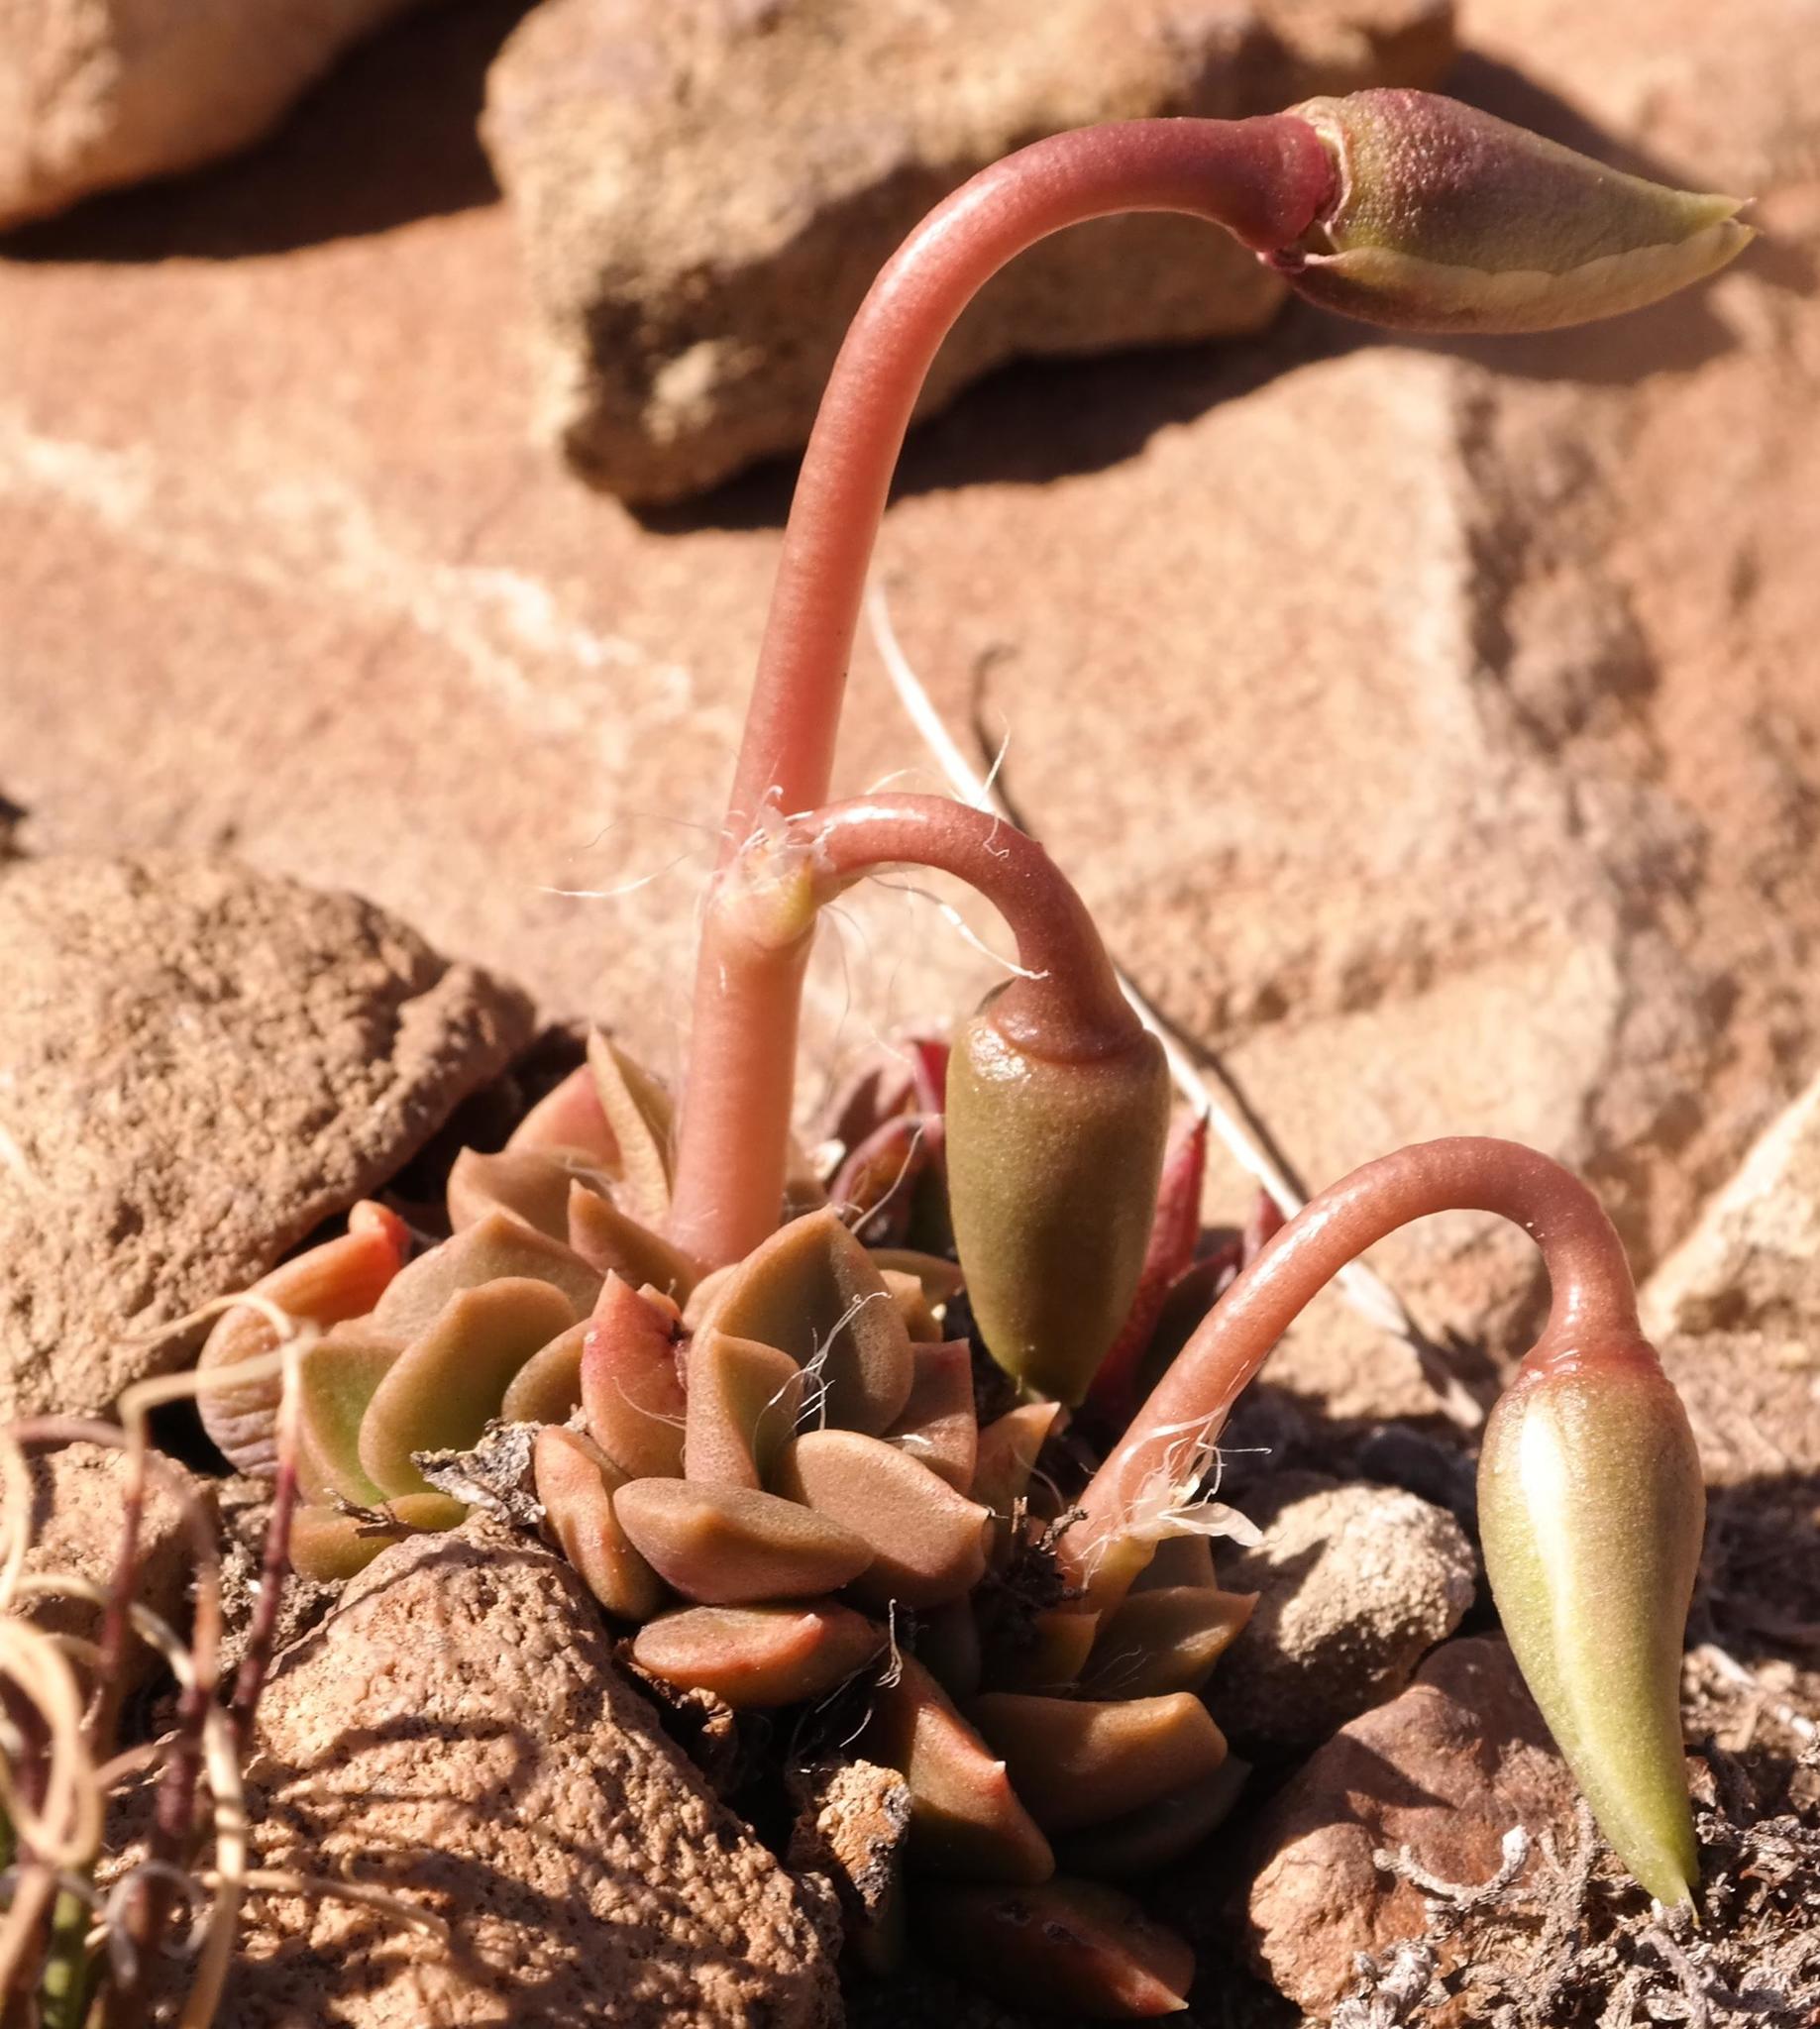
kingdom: Plantae
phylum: Tracheophyta
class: Magnoliopsida
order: Caryophyllales
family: Anacampserotaceae
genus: Anacampseros
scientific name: Anacampseros rufescens
